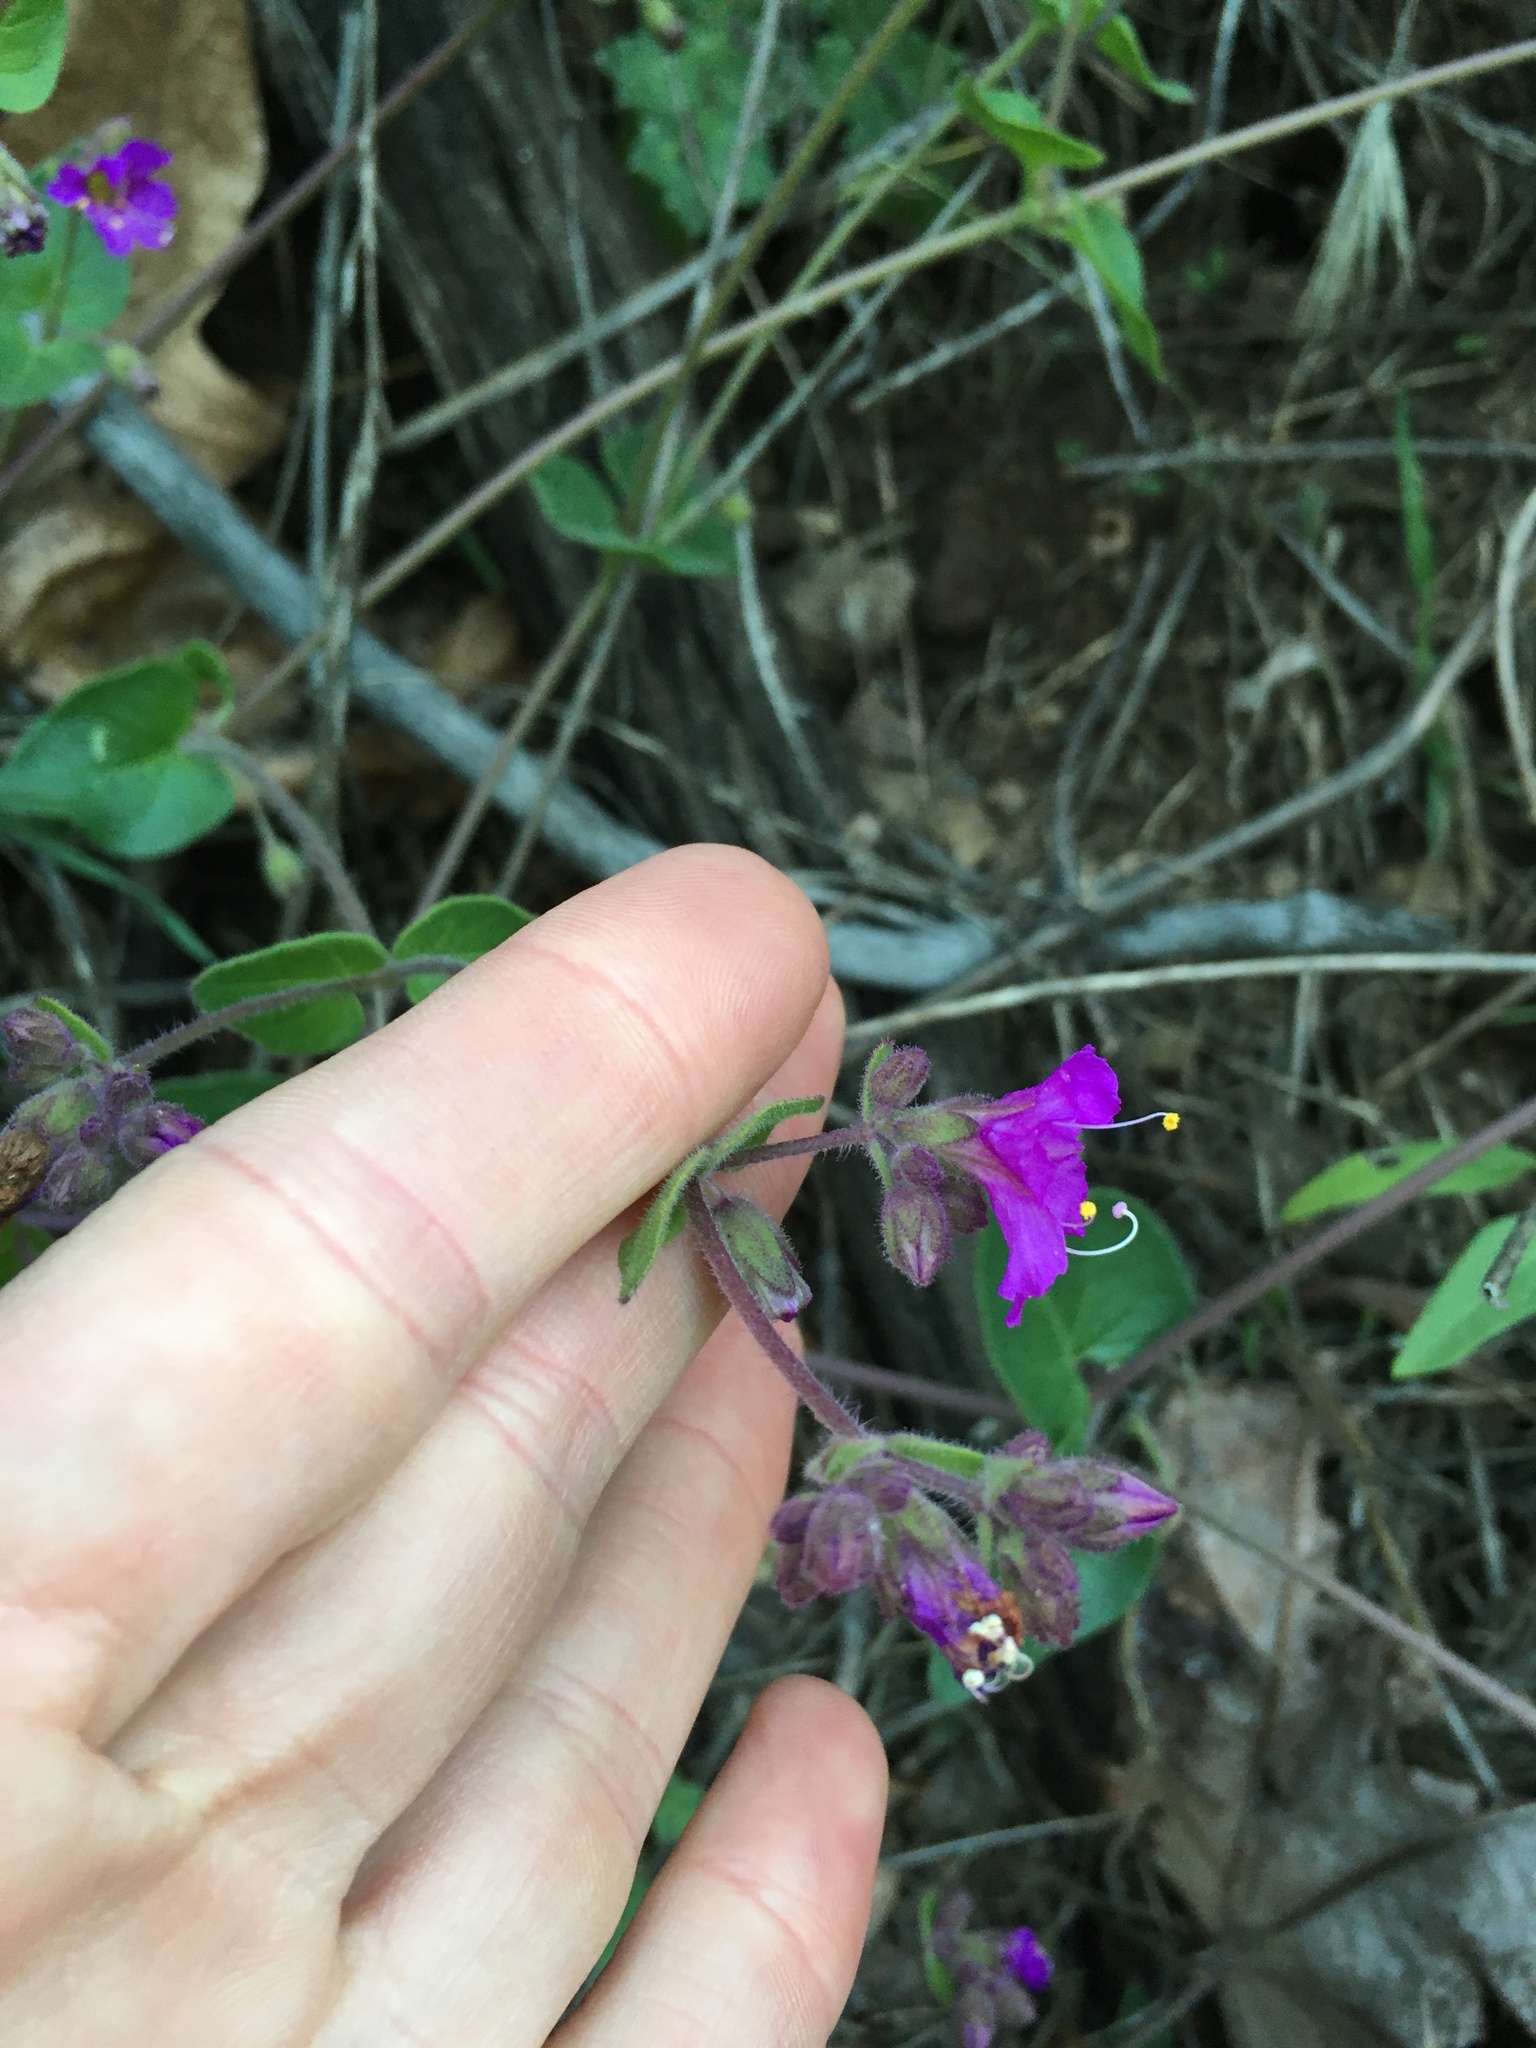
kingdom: Plantae
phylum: Tracheophyta
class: Magnoliopsida
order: Caryophyllales
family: Nyctaginaceae
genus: Mirabilis
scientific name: Mirabilis laevis
